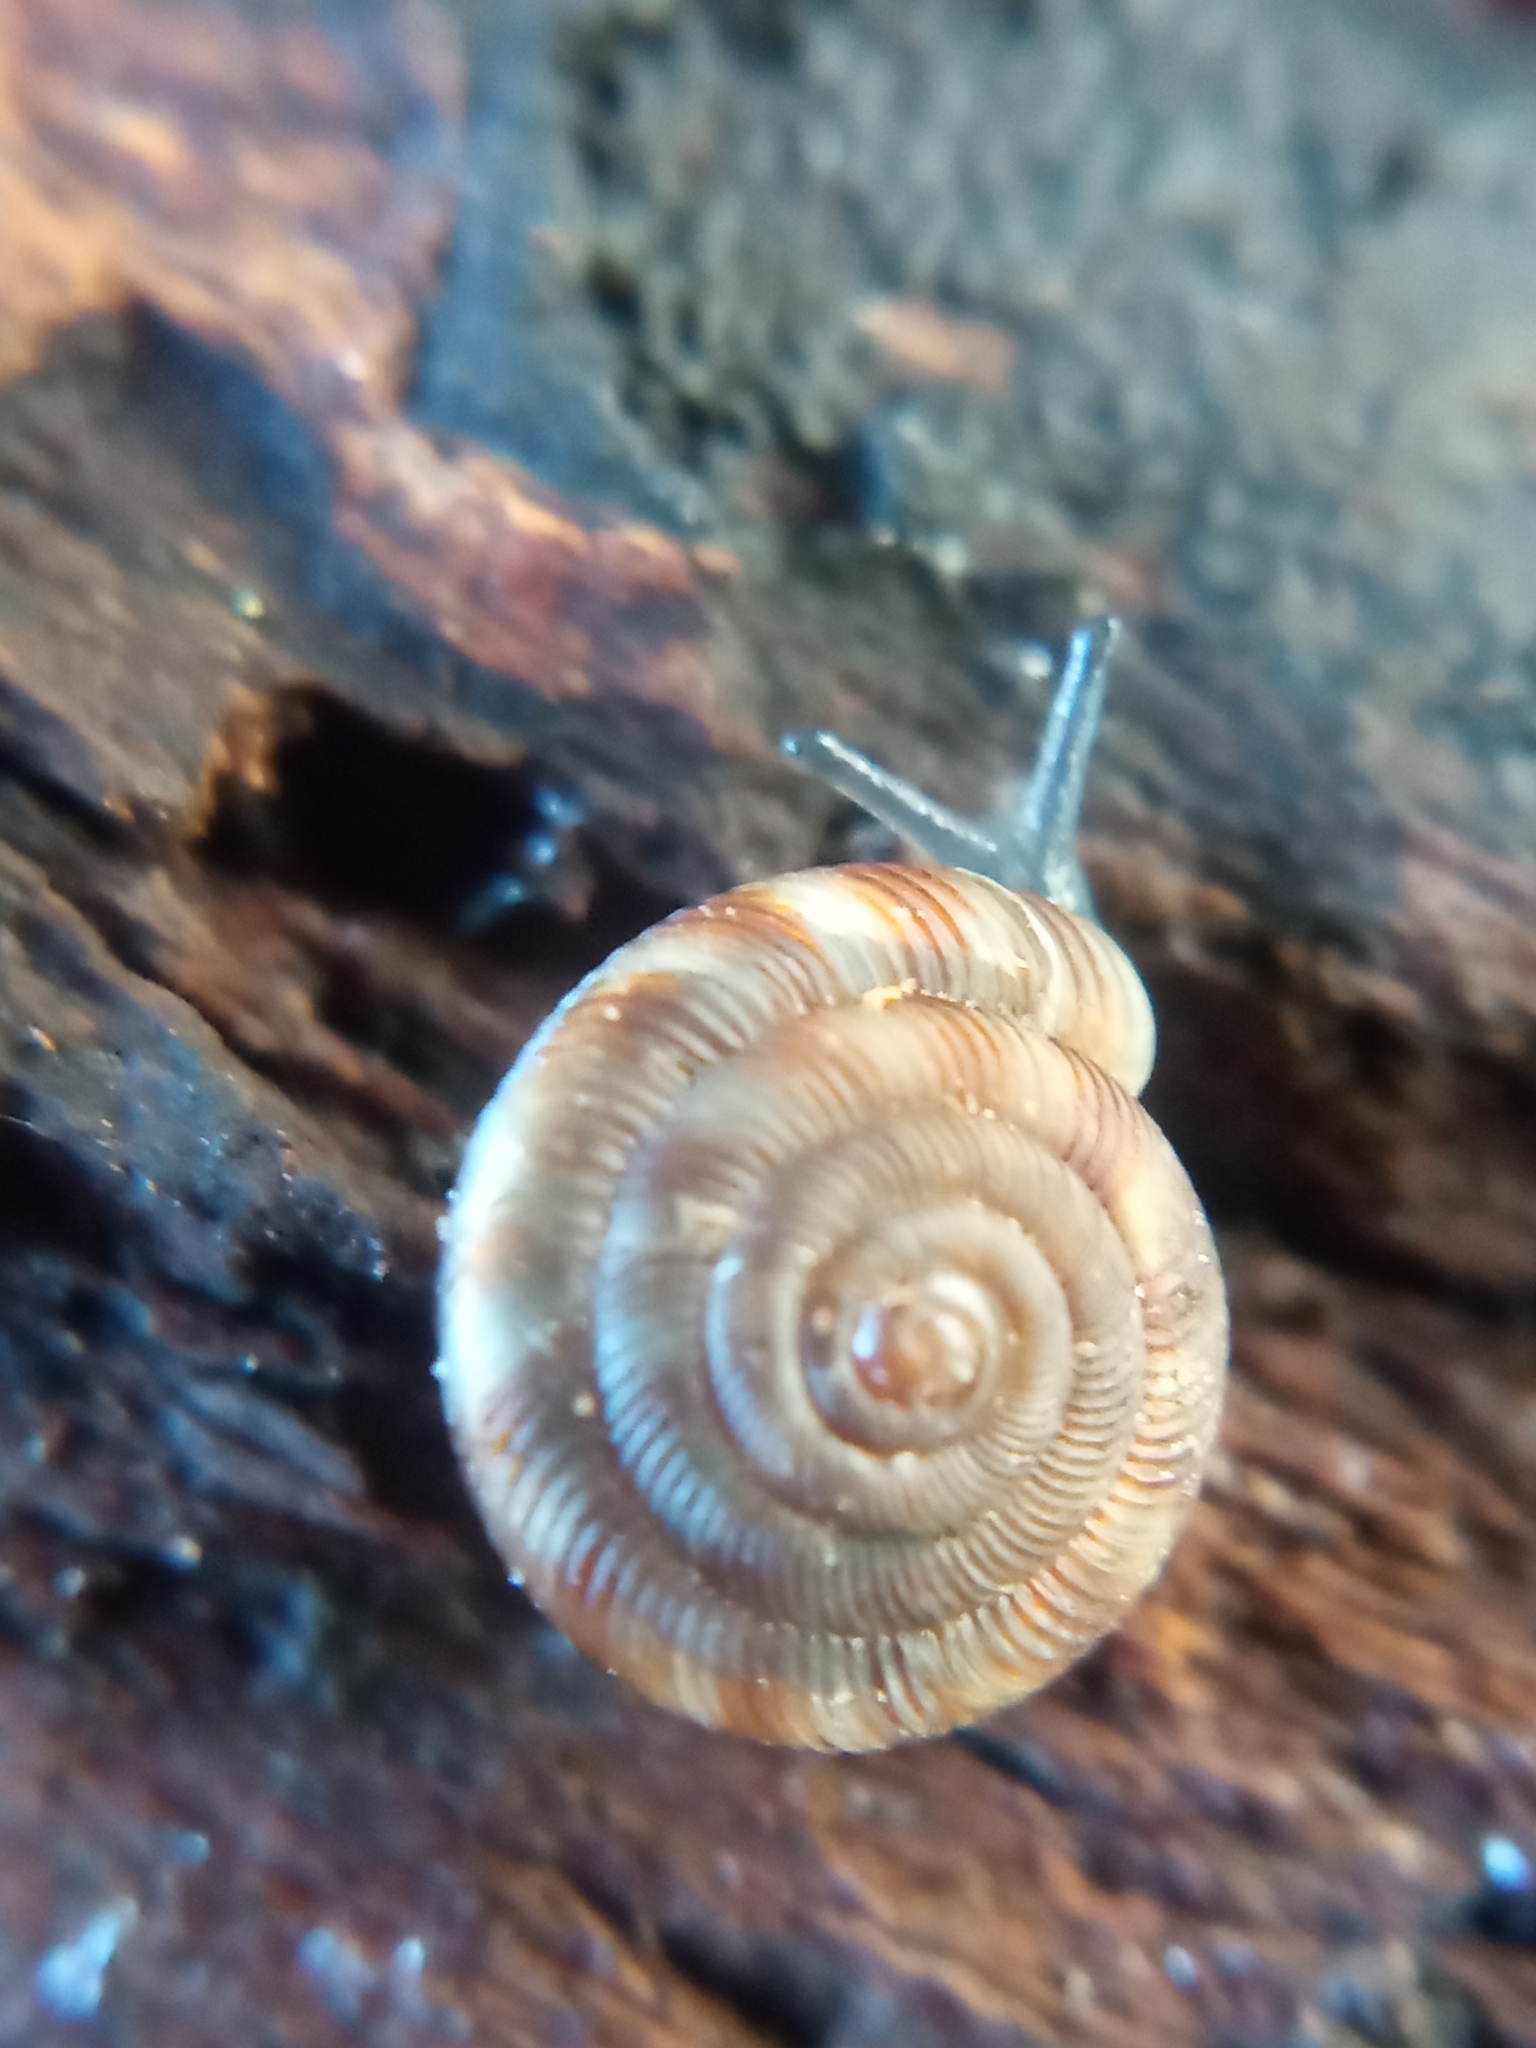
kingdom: Animalia
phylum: Mollusca
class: Gastropoda
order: Stylommatophora
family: Discidae
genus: Discus
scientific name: Discus rotundatus
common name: Rounded snail
